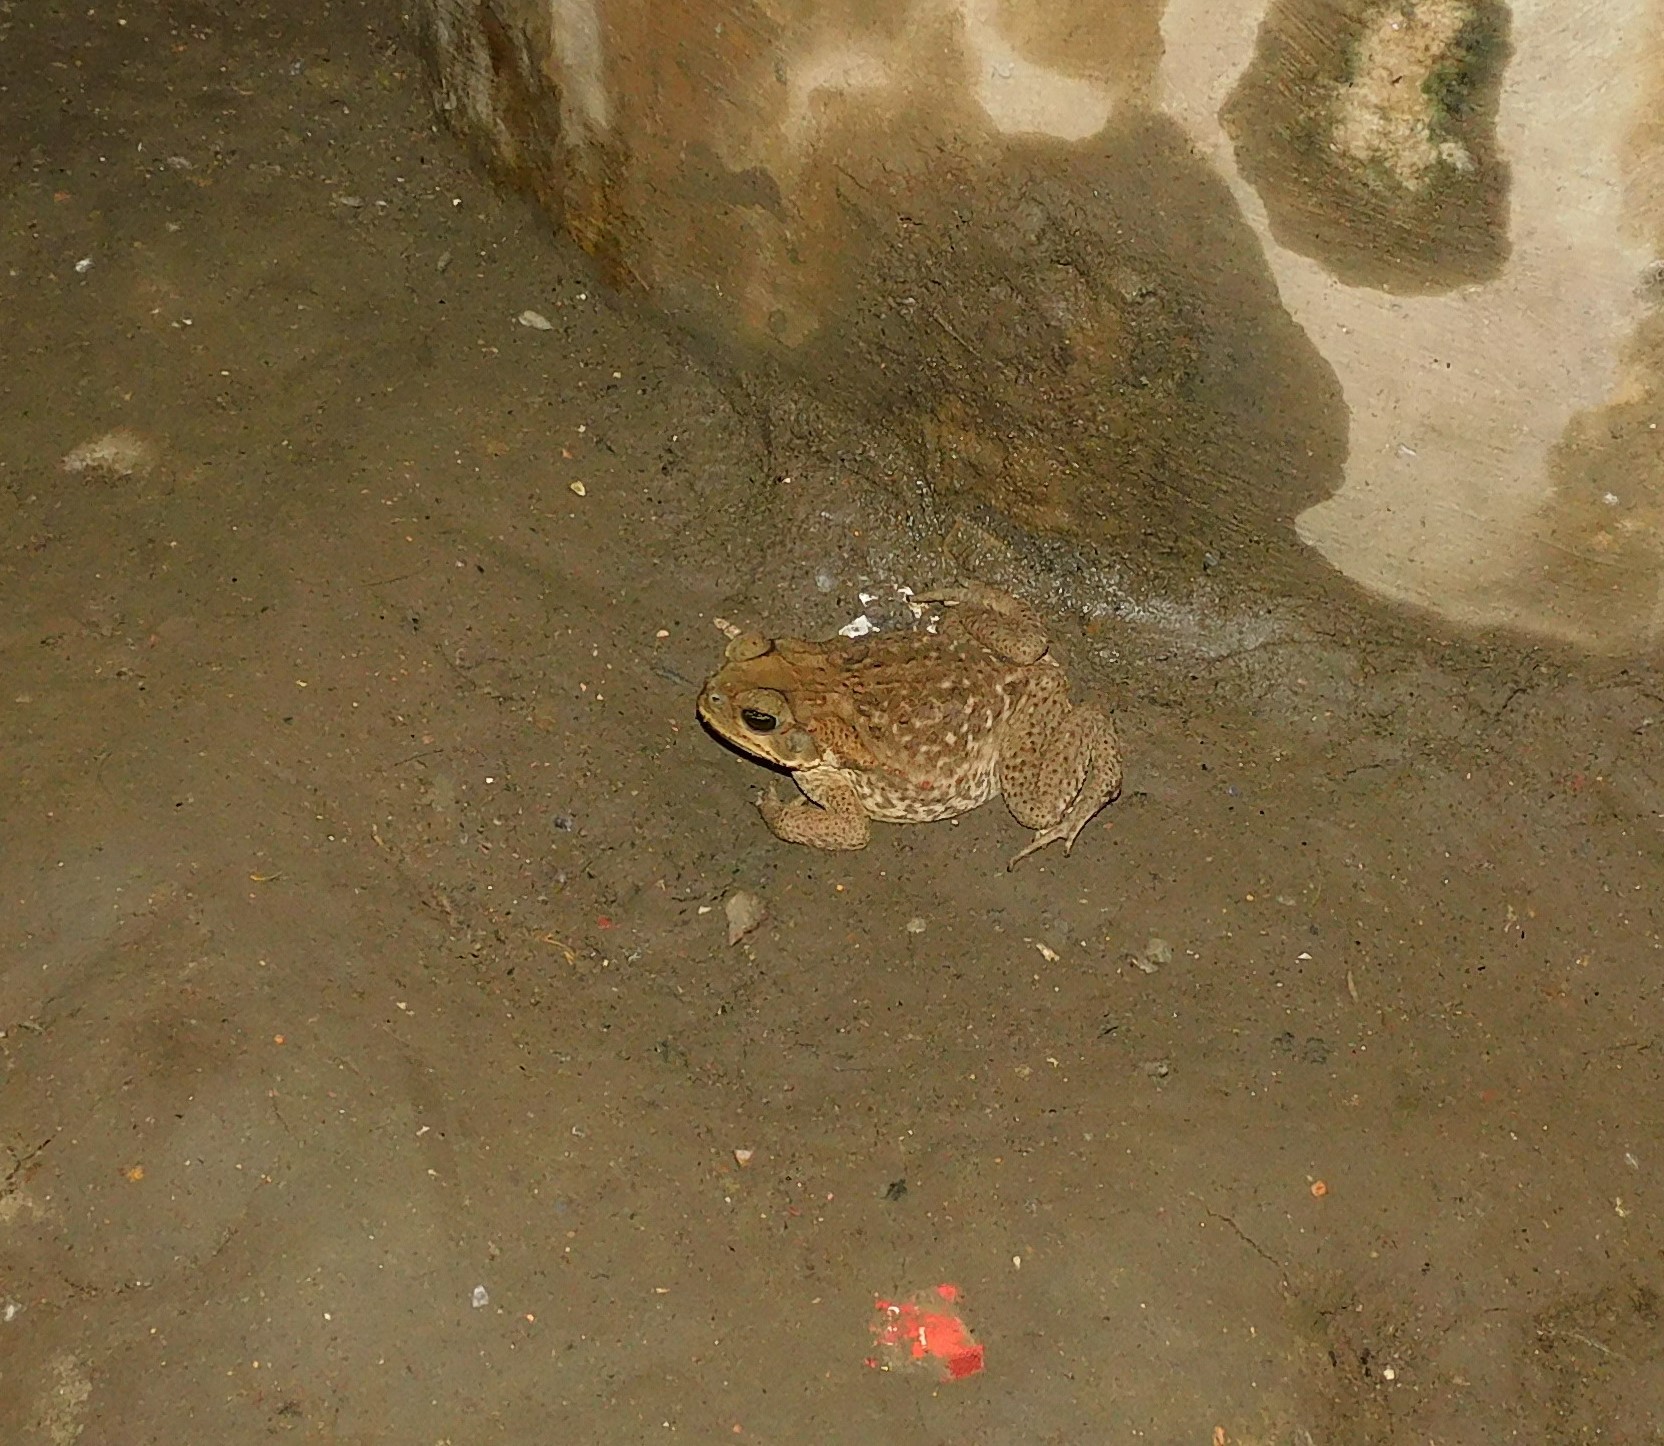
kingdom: Animalia
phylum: Chordata
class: Amphibia
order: Anura
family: Bufonidae
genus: Rhinella
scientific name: Rhinella horribilis
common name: Mesoamerican cane toad
